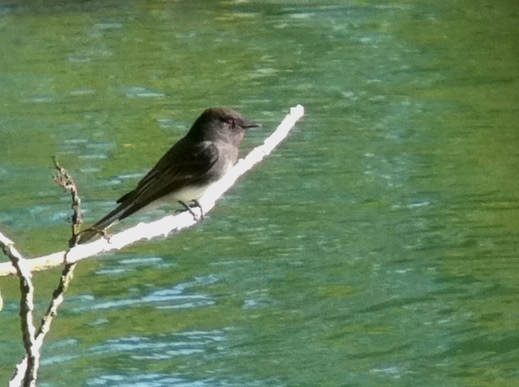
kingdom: Animalia
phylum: Chordata
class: Aves
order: Passeriformes
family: Tyrannidae
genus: Sayornis
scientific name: Sayornis nigricans
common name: Black phoebe
